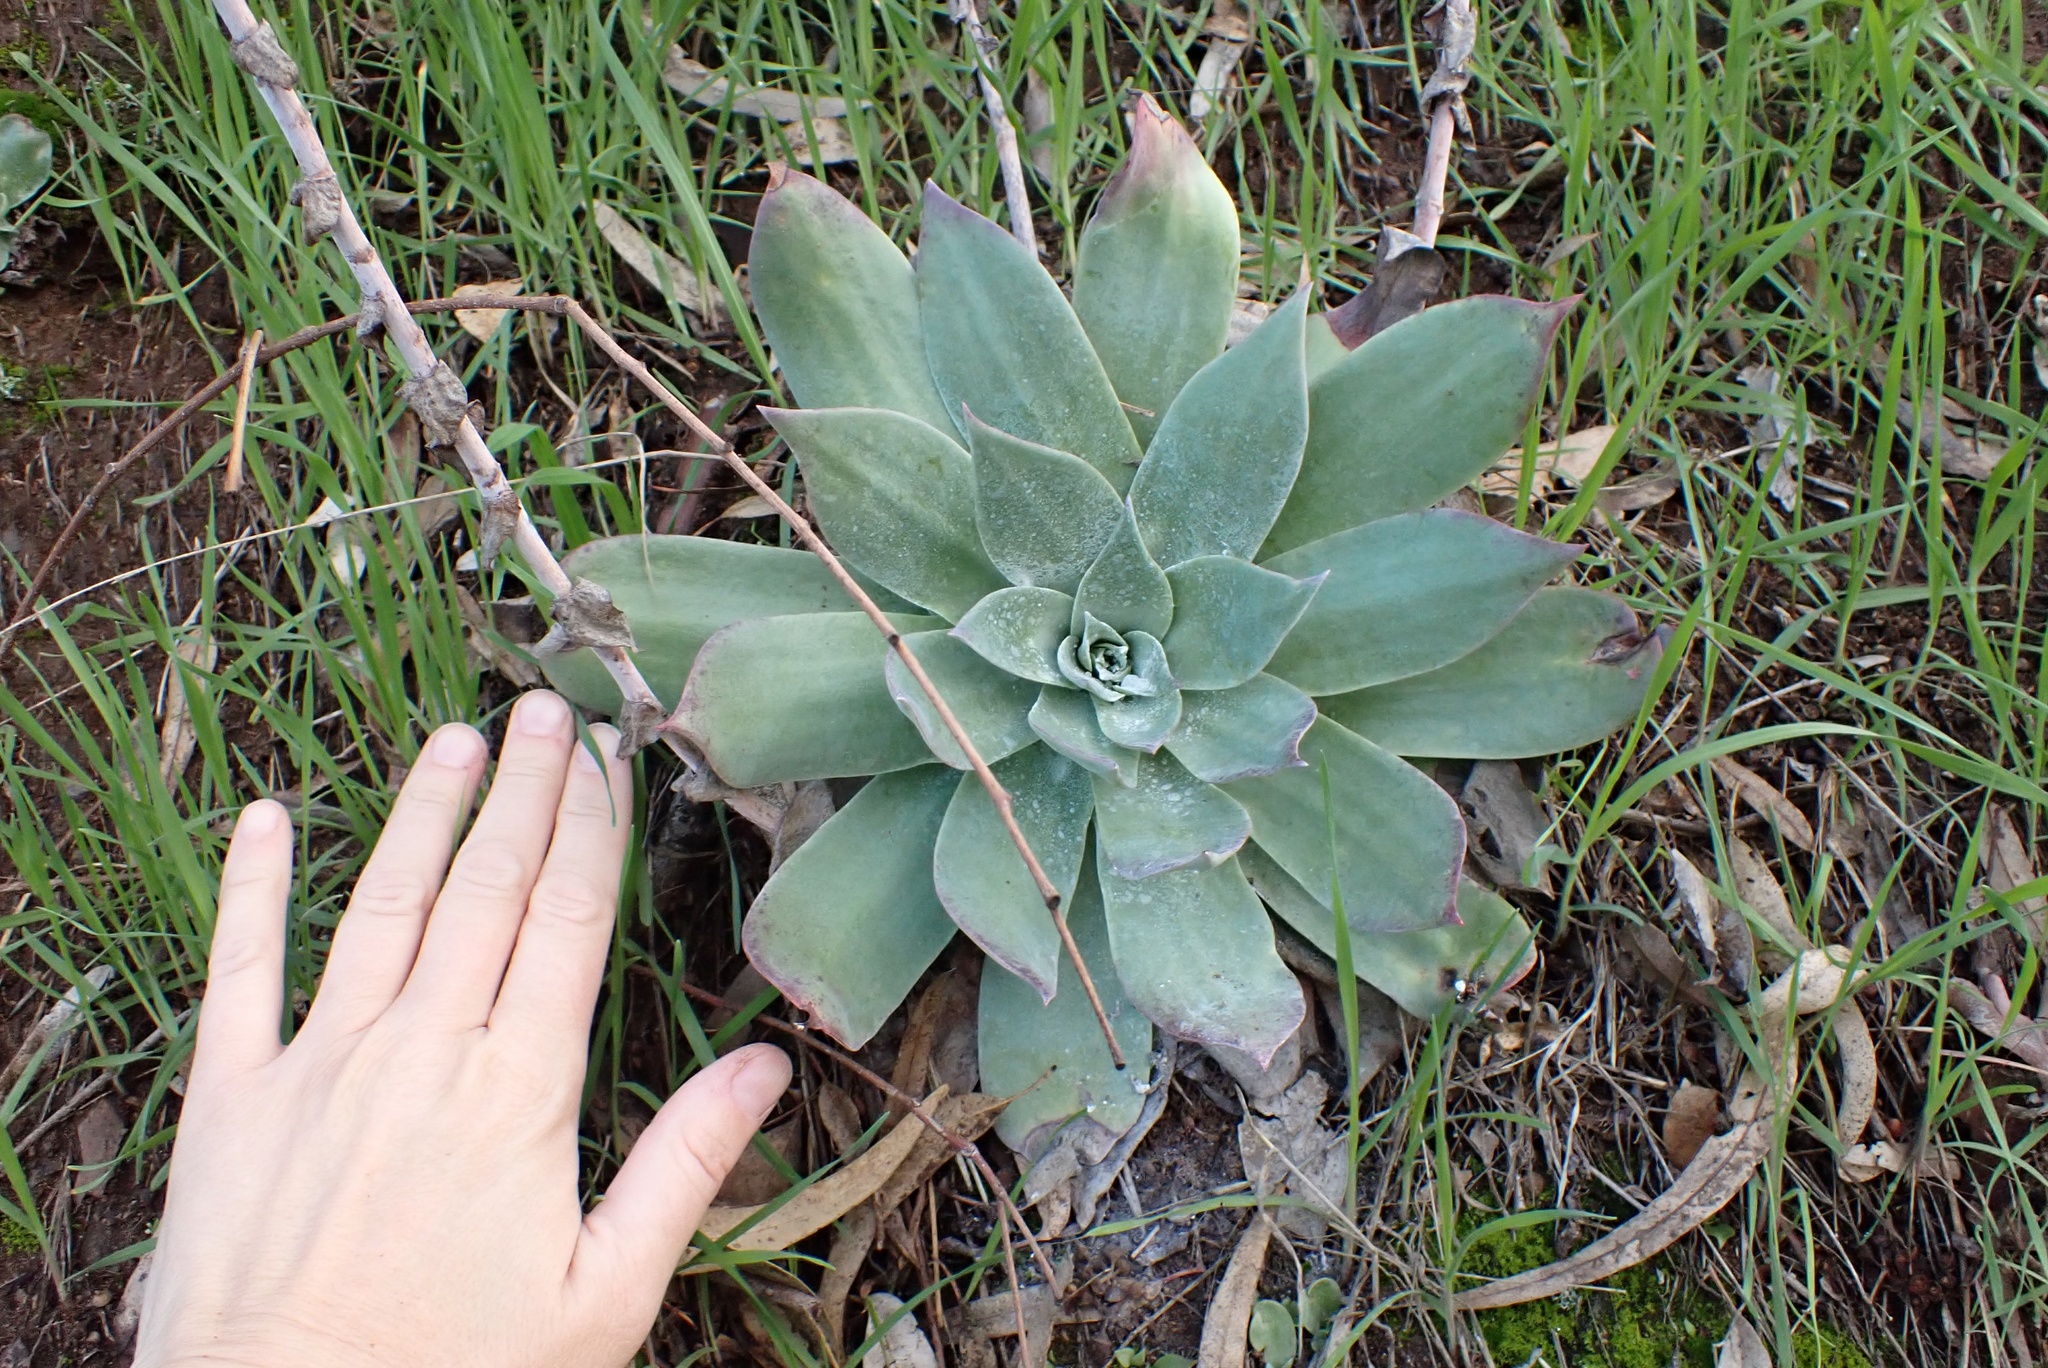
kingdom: Plantae
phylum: Tracheophyta
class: Magnoliopsida
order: Saxifragales
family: Crassulaceae
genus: Dudleya
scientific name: Dudleya pulverulenta
